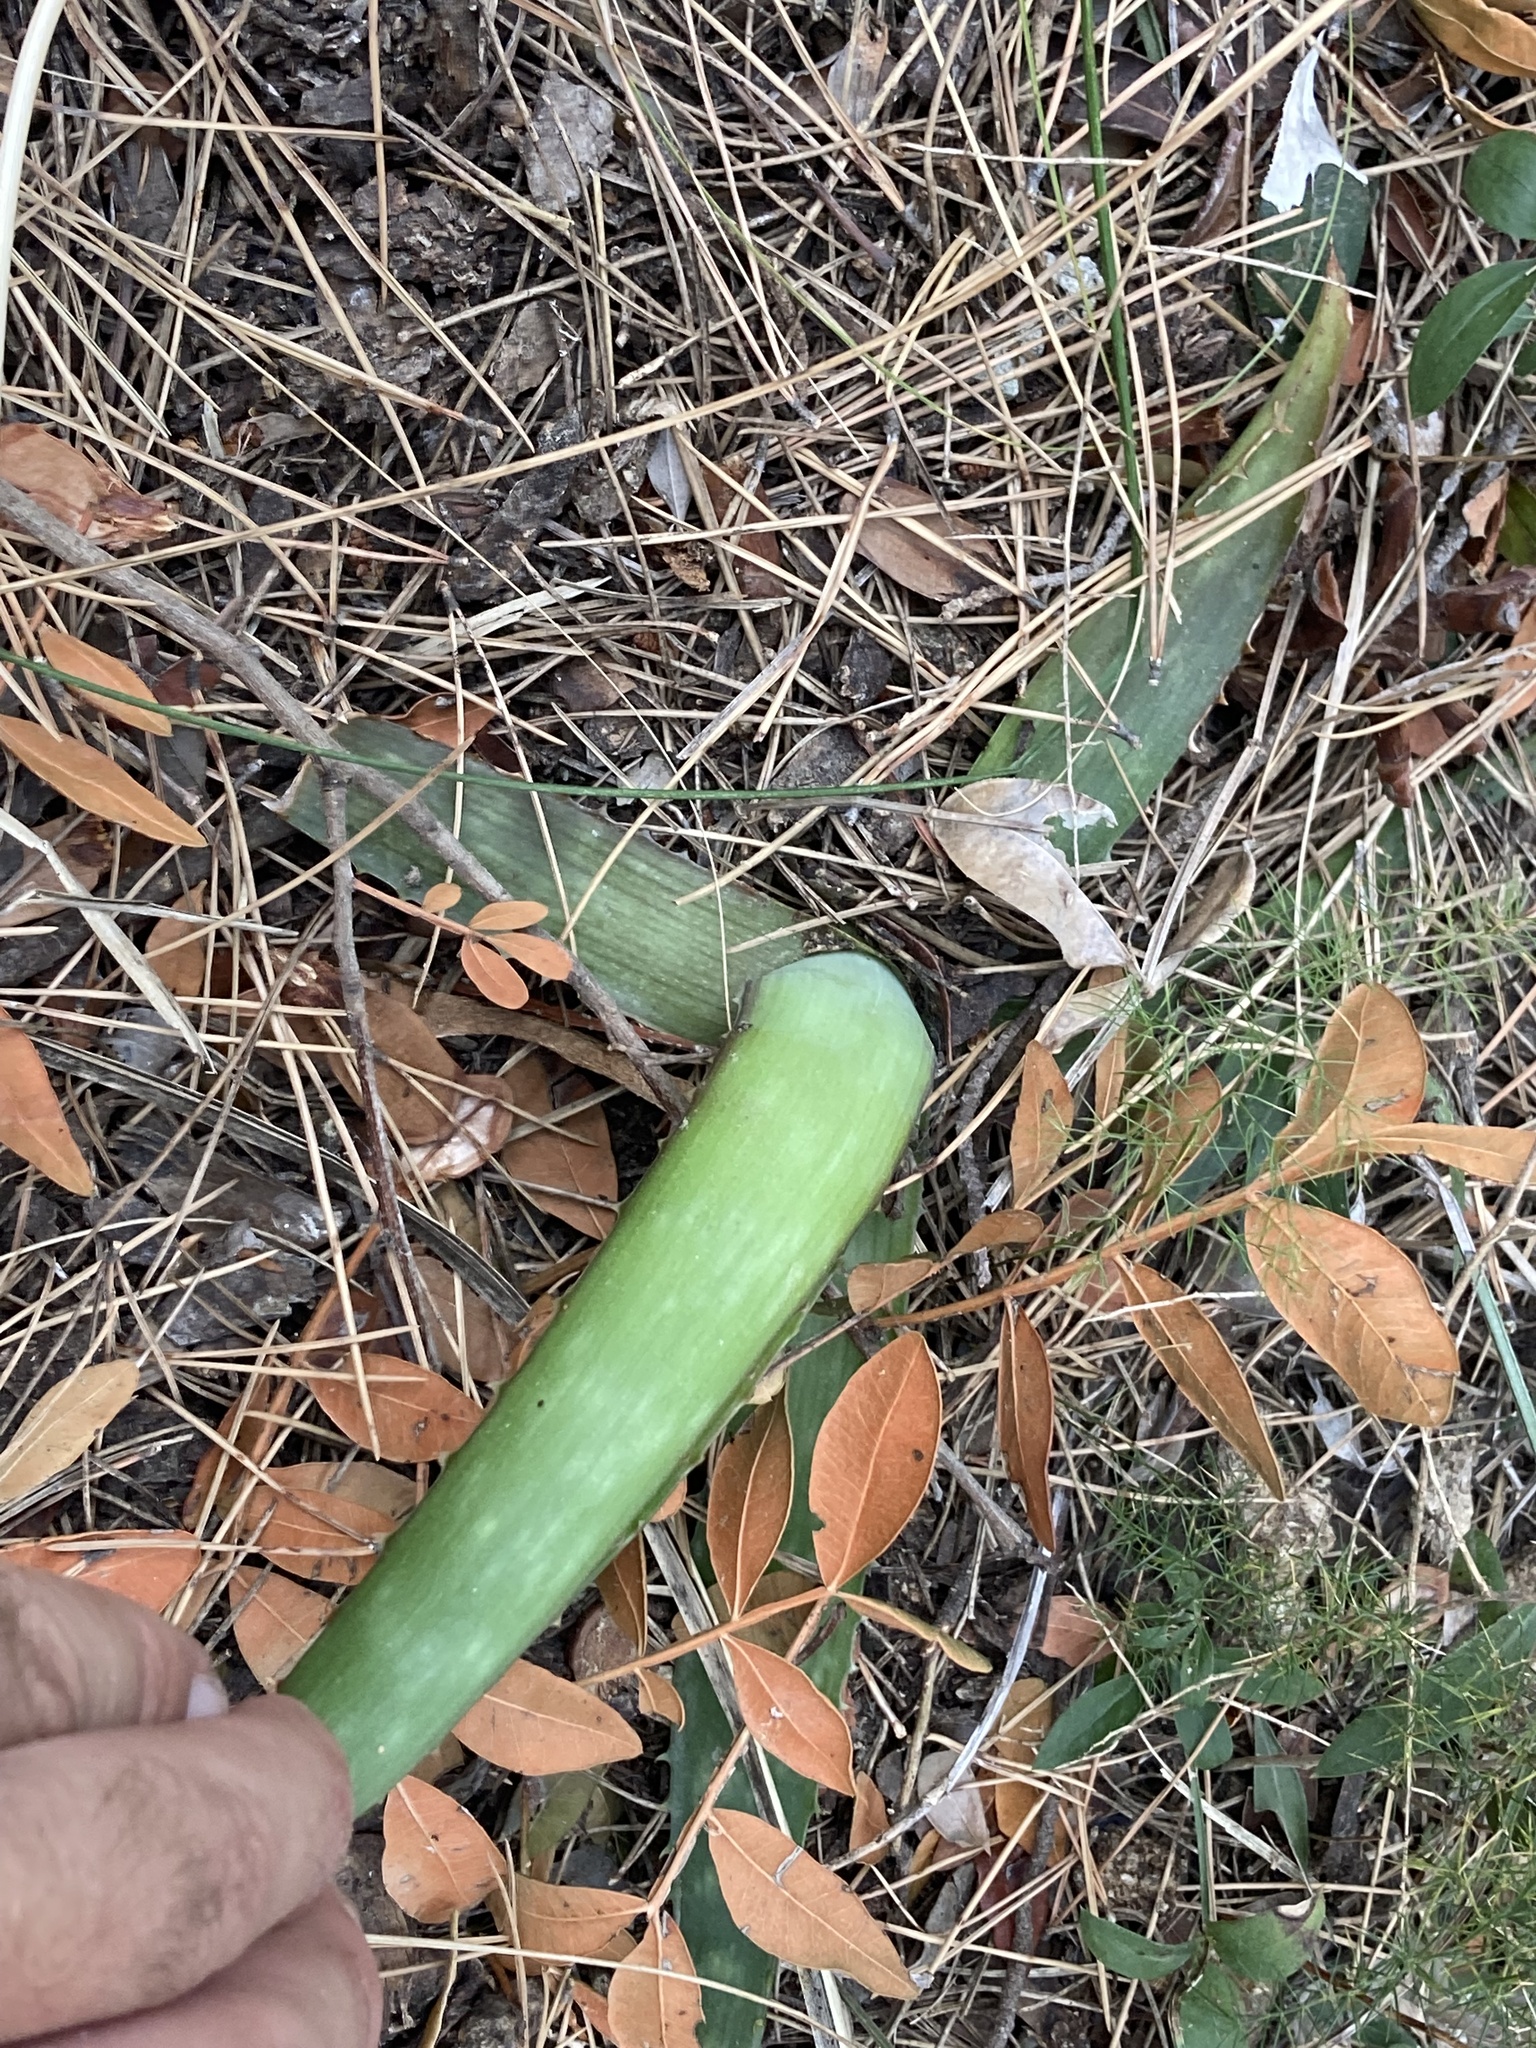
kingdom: Plantae
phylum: Tracheophyta
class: Liliopsida
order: Asparagales
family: Asphodelaceae
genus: Aloe
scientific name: Aloe maculata
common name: Broadleaf aloe
